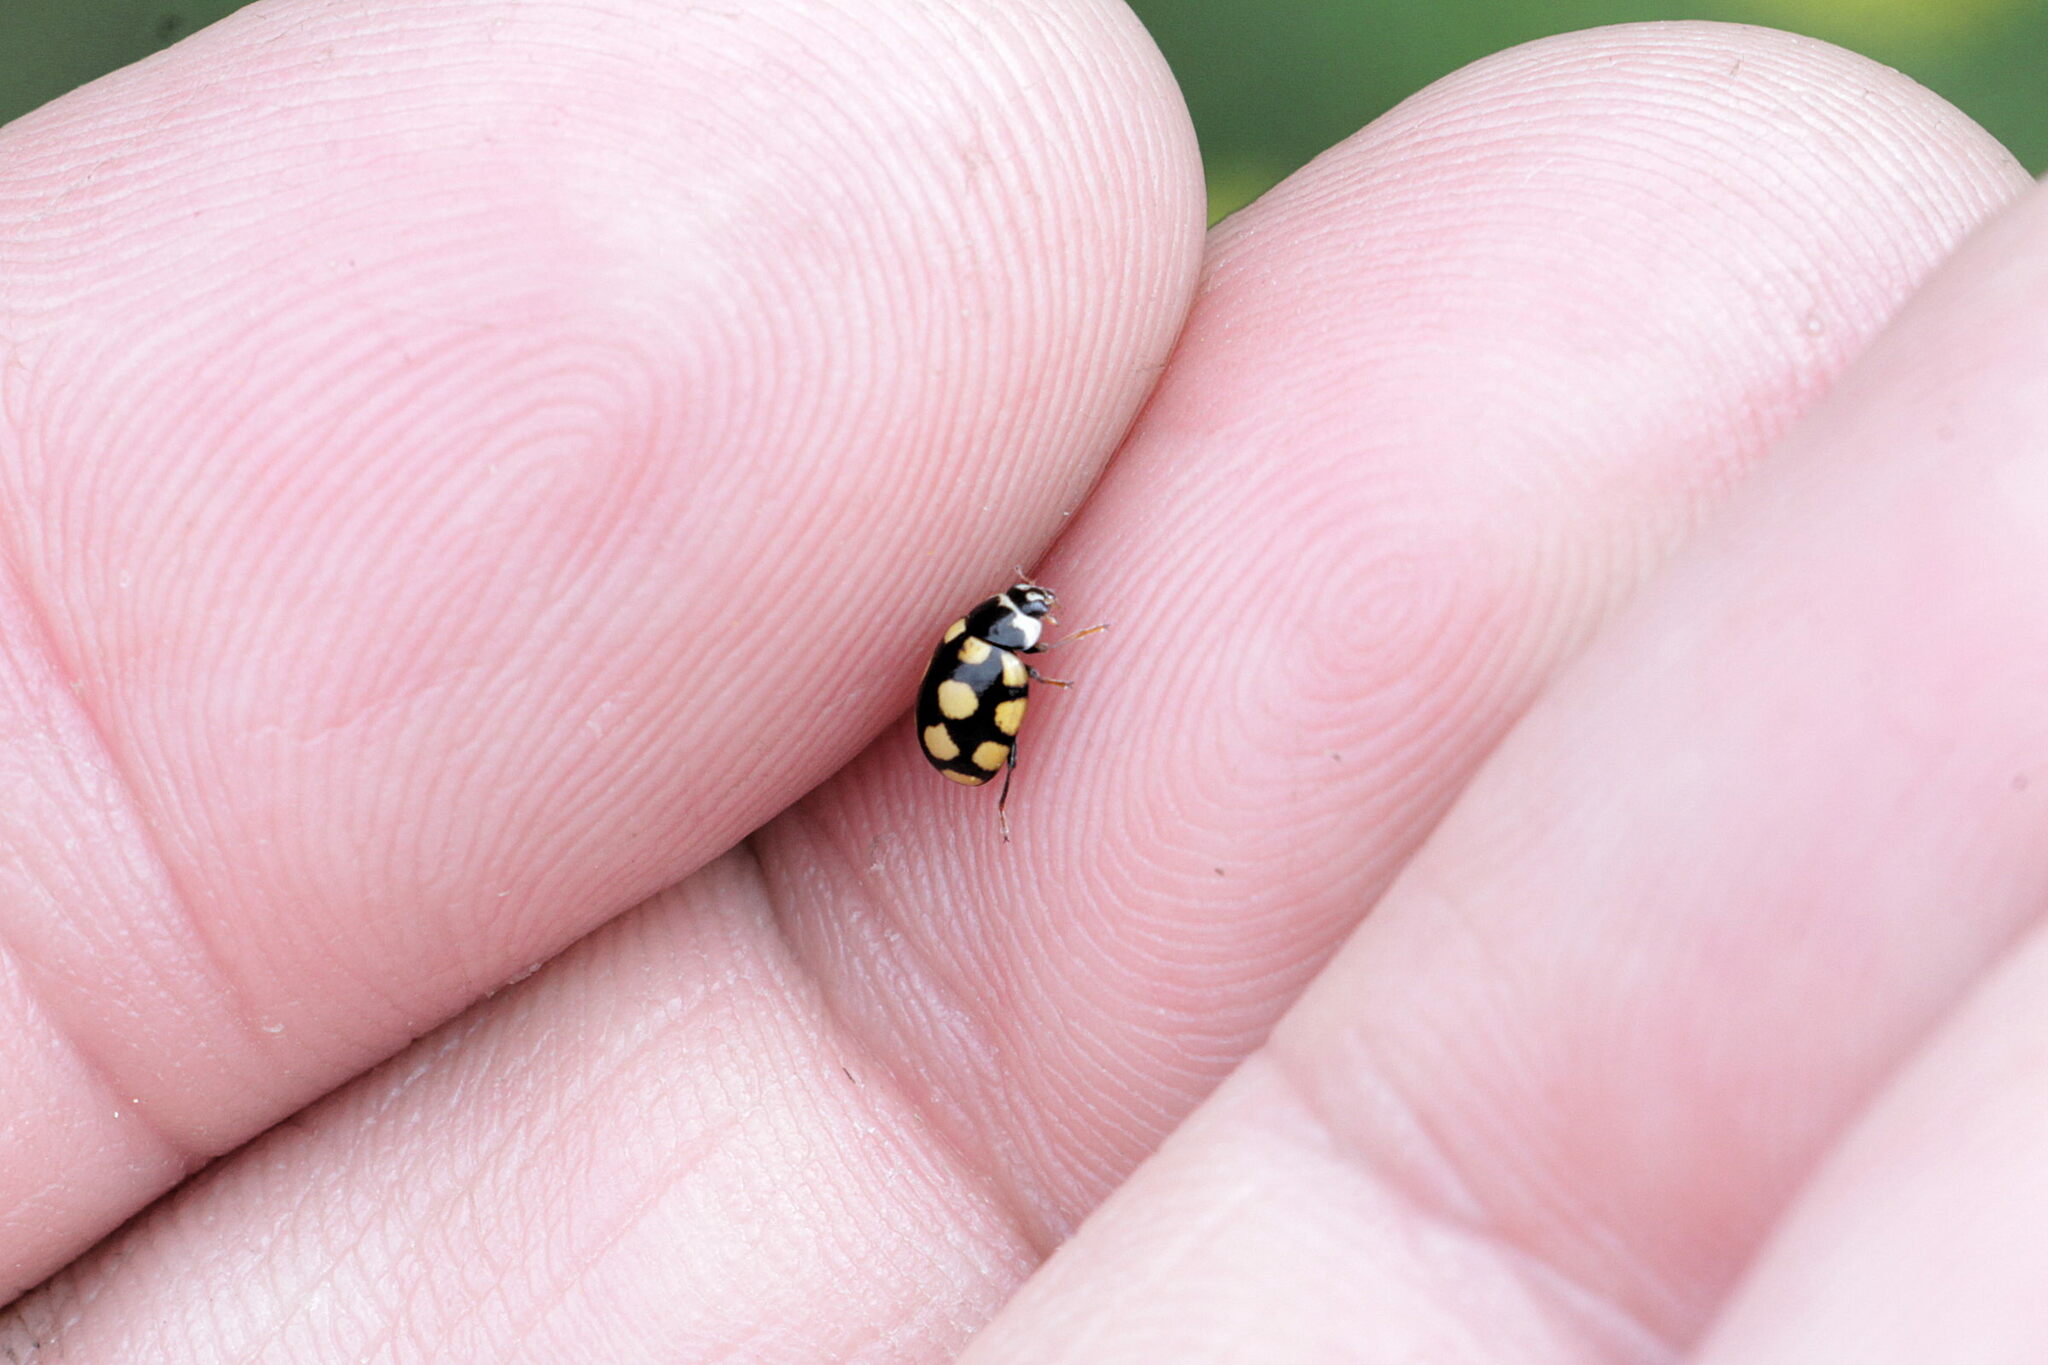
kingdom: Animalia
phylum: Arthropoda
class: Insecta
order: Coleoptera
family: Coccinellidae
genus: Coccinula
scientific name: Coccinula quatuordecimpustulata
